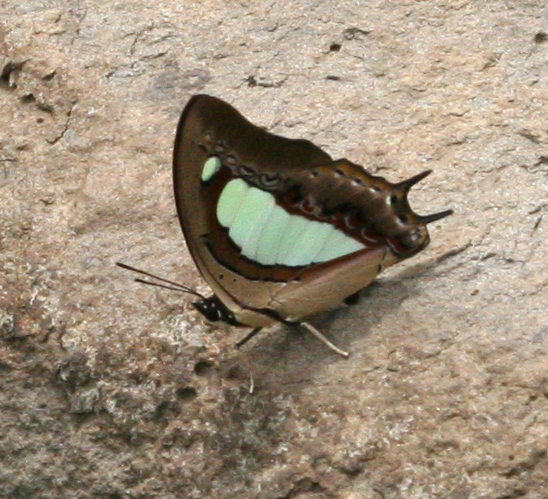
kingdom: Animalia
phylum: Arthropoda
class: Insecta
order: Lepidoptera
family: Nymphalidae
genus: Polyura
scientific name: Polyura arja
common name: Pallid nawab
